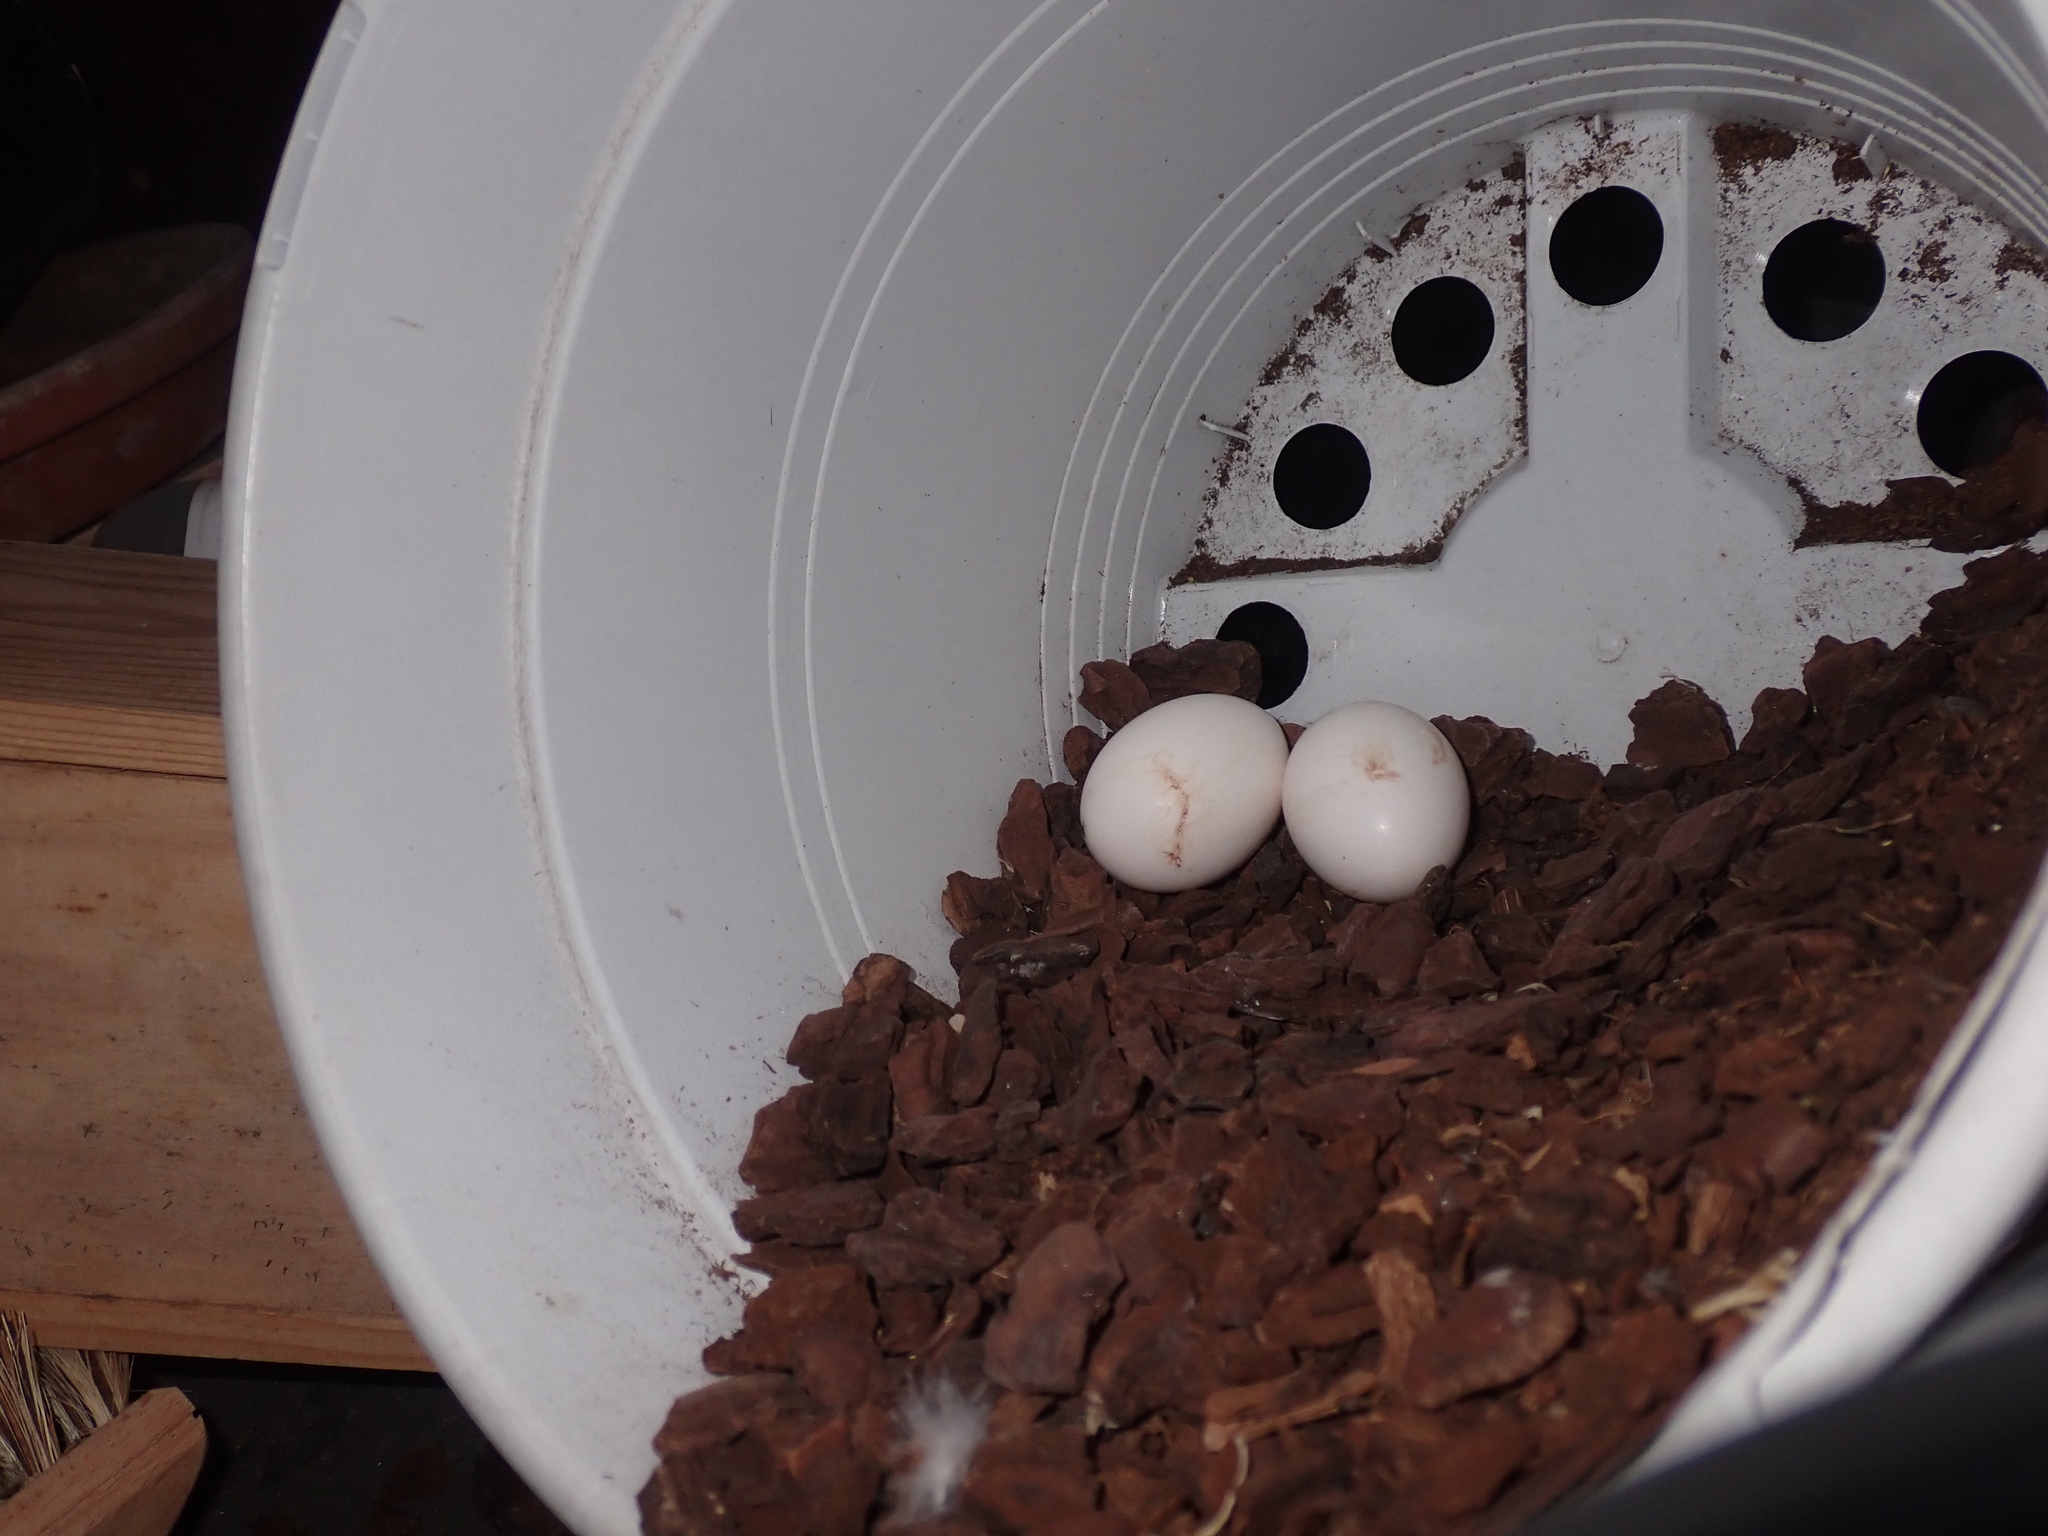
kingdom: Animalia
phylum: Chordata
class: Aves
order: Columbiformes
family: Columbidae
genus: Columba
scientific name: Columba livia
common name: Rock pigeon
